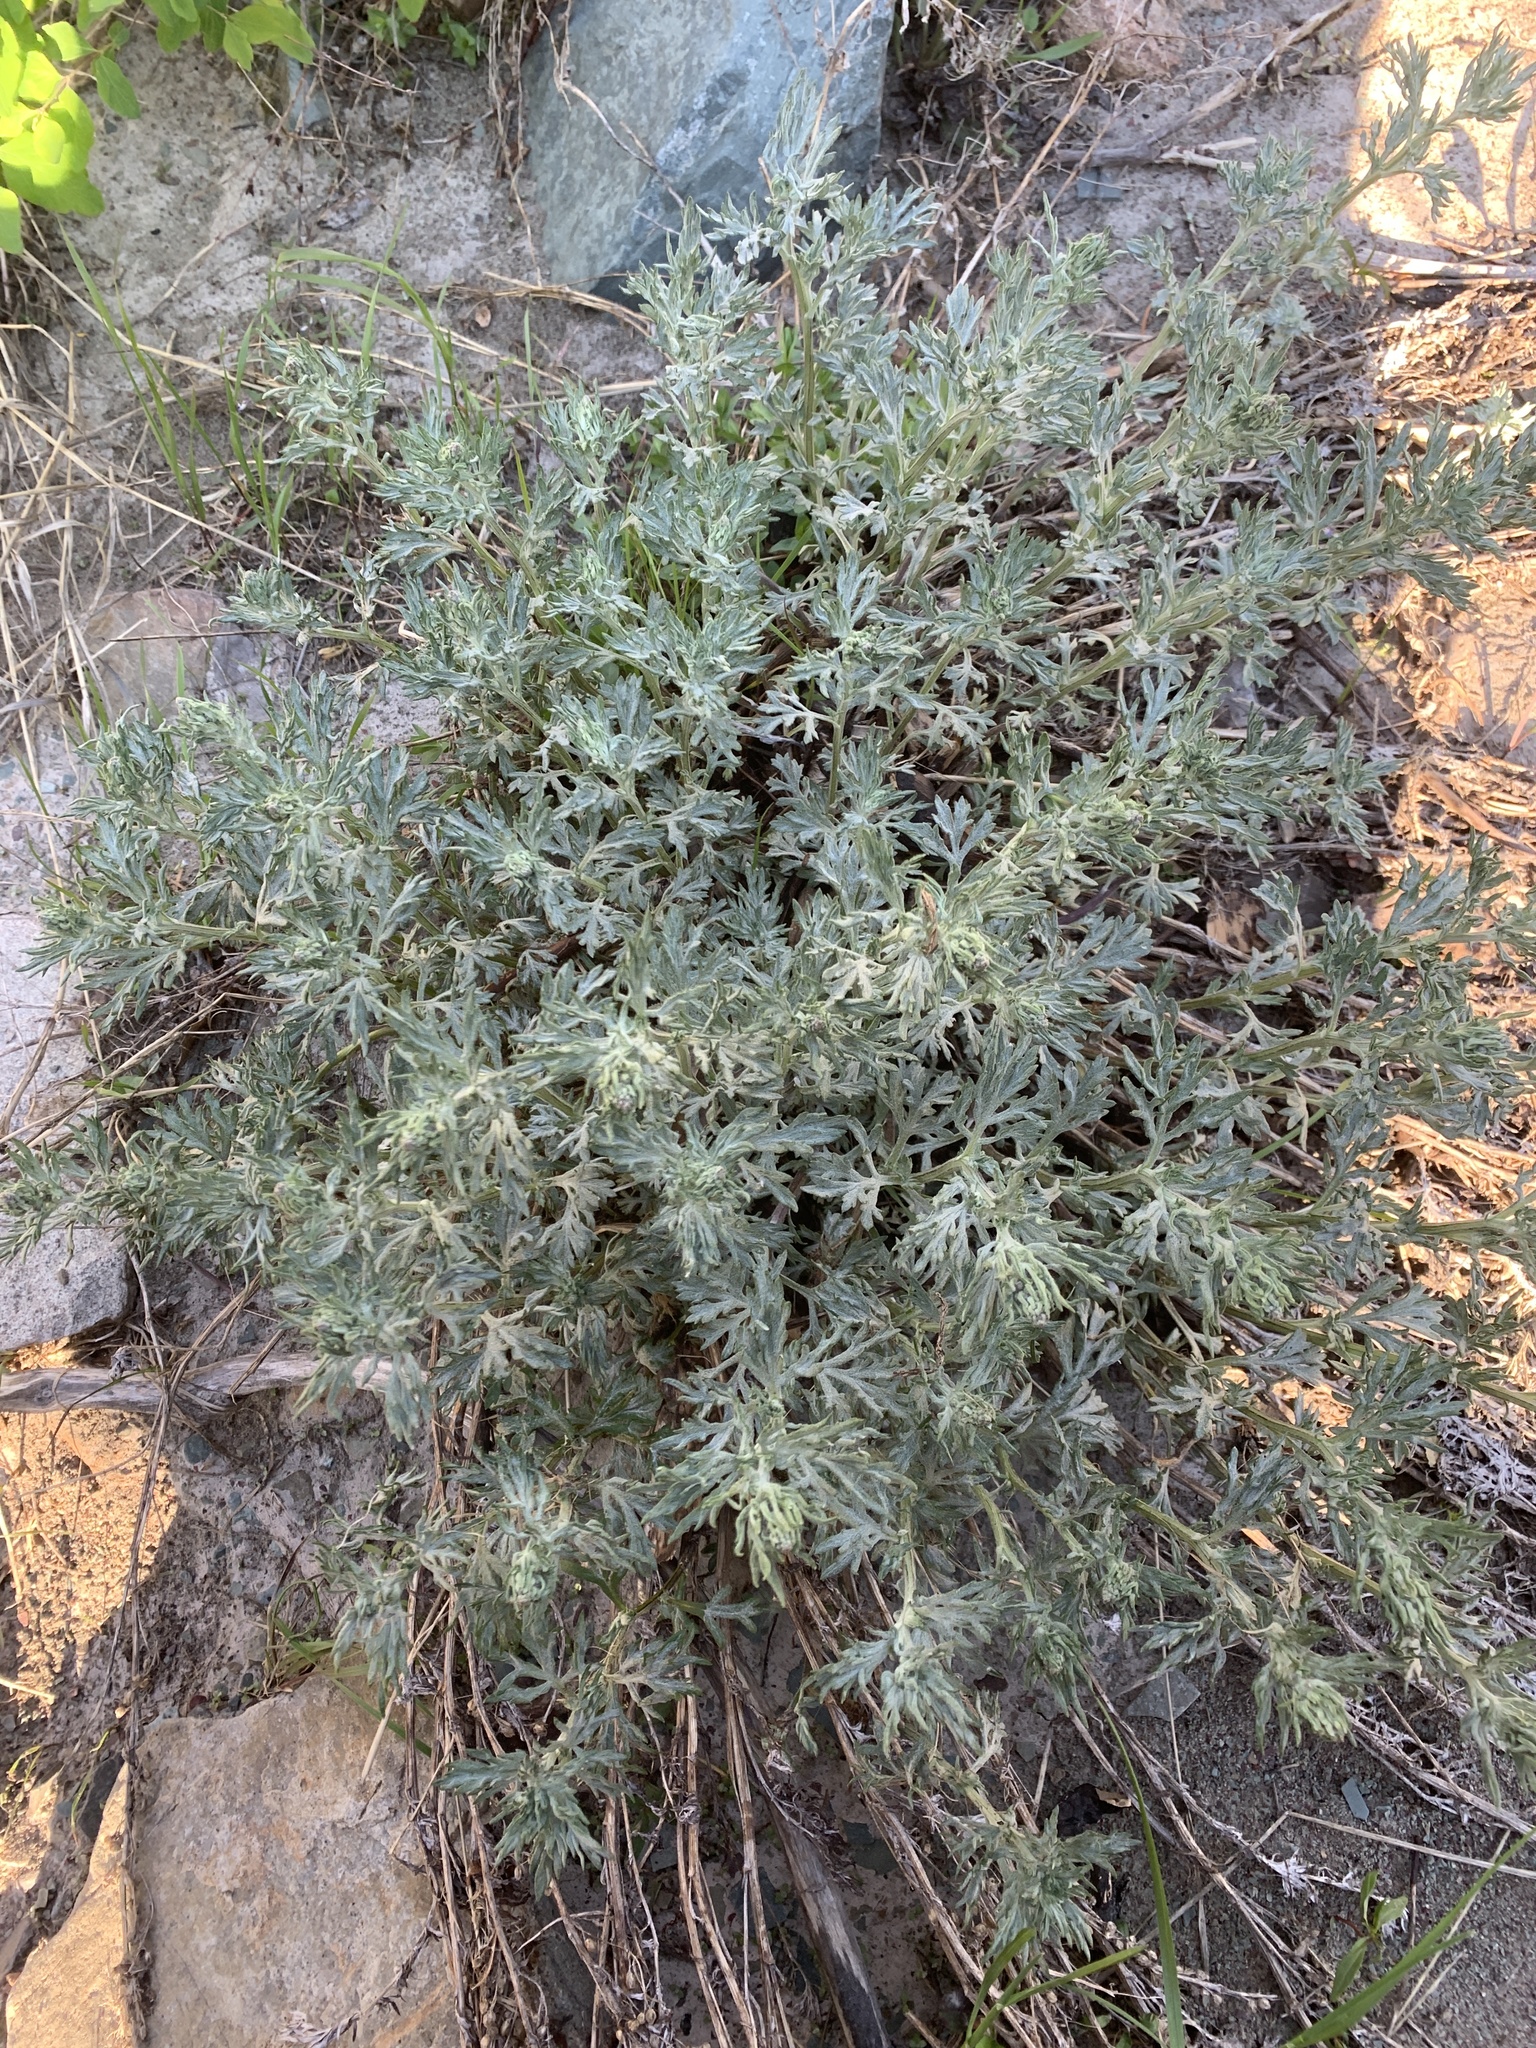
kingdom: Plantae
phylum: Tracheophyta
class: Magnoliopsida
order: Asterales
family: Asteraceae
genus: Artemisia
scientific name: Artemisia michauxiana
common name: Lemon sagewort
